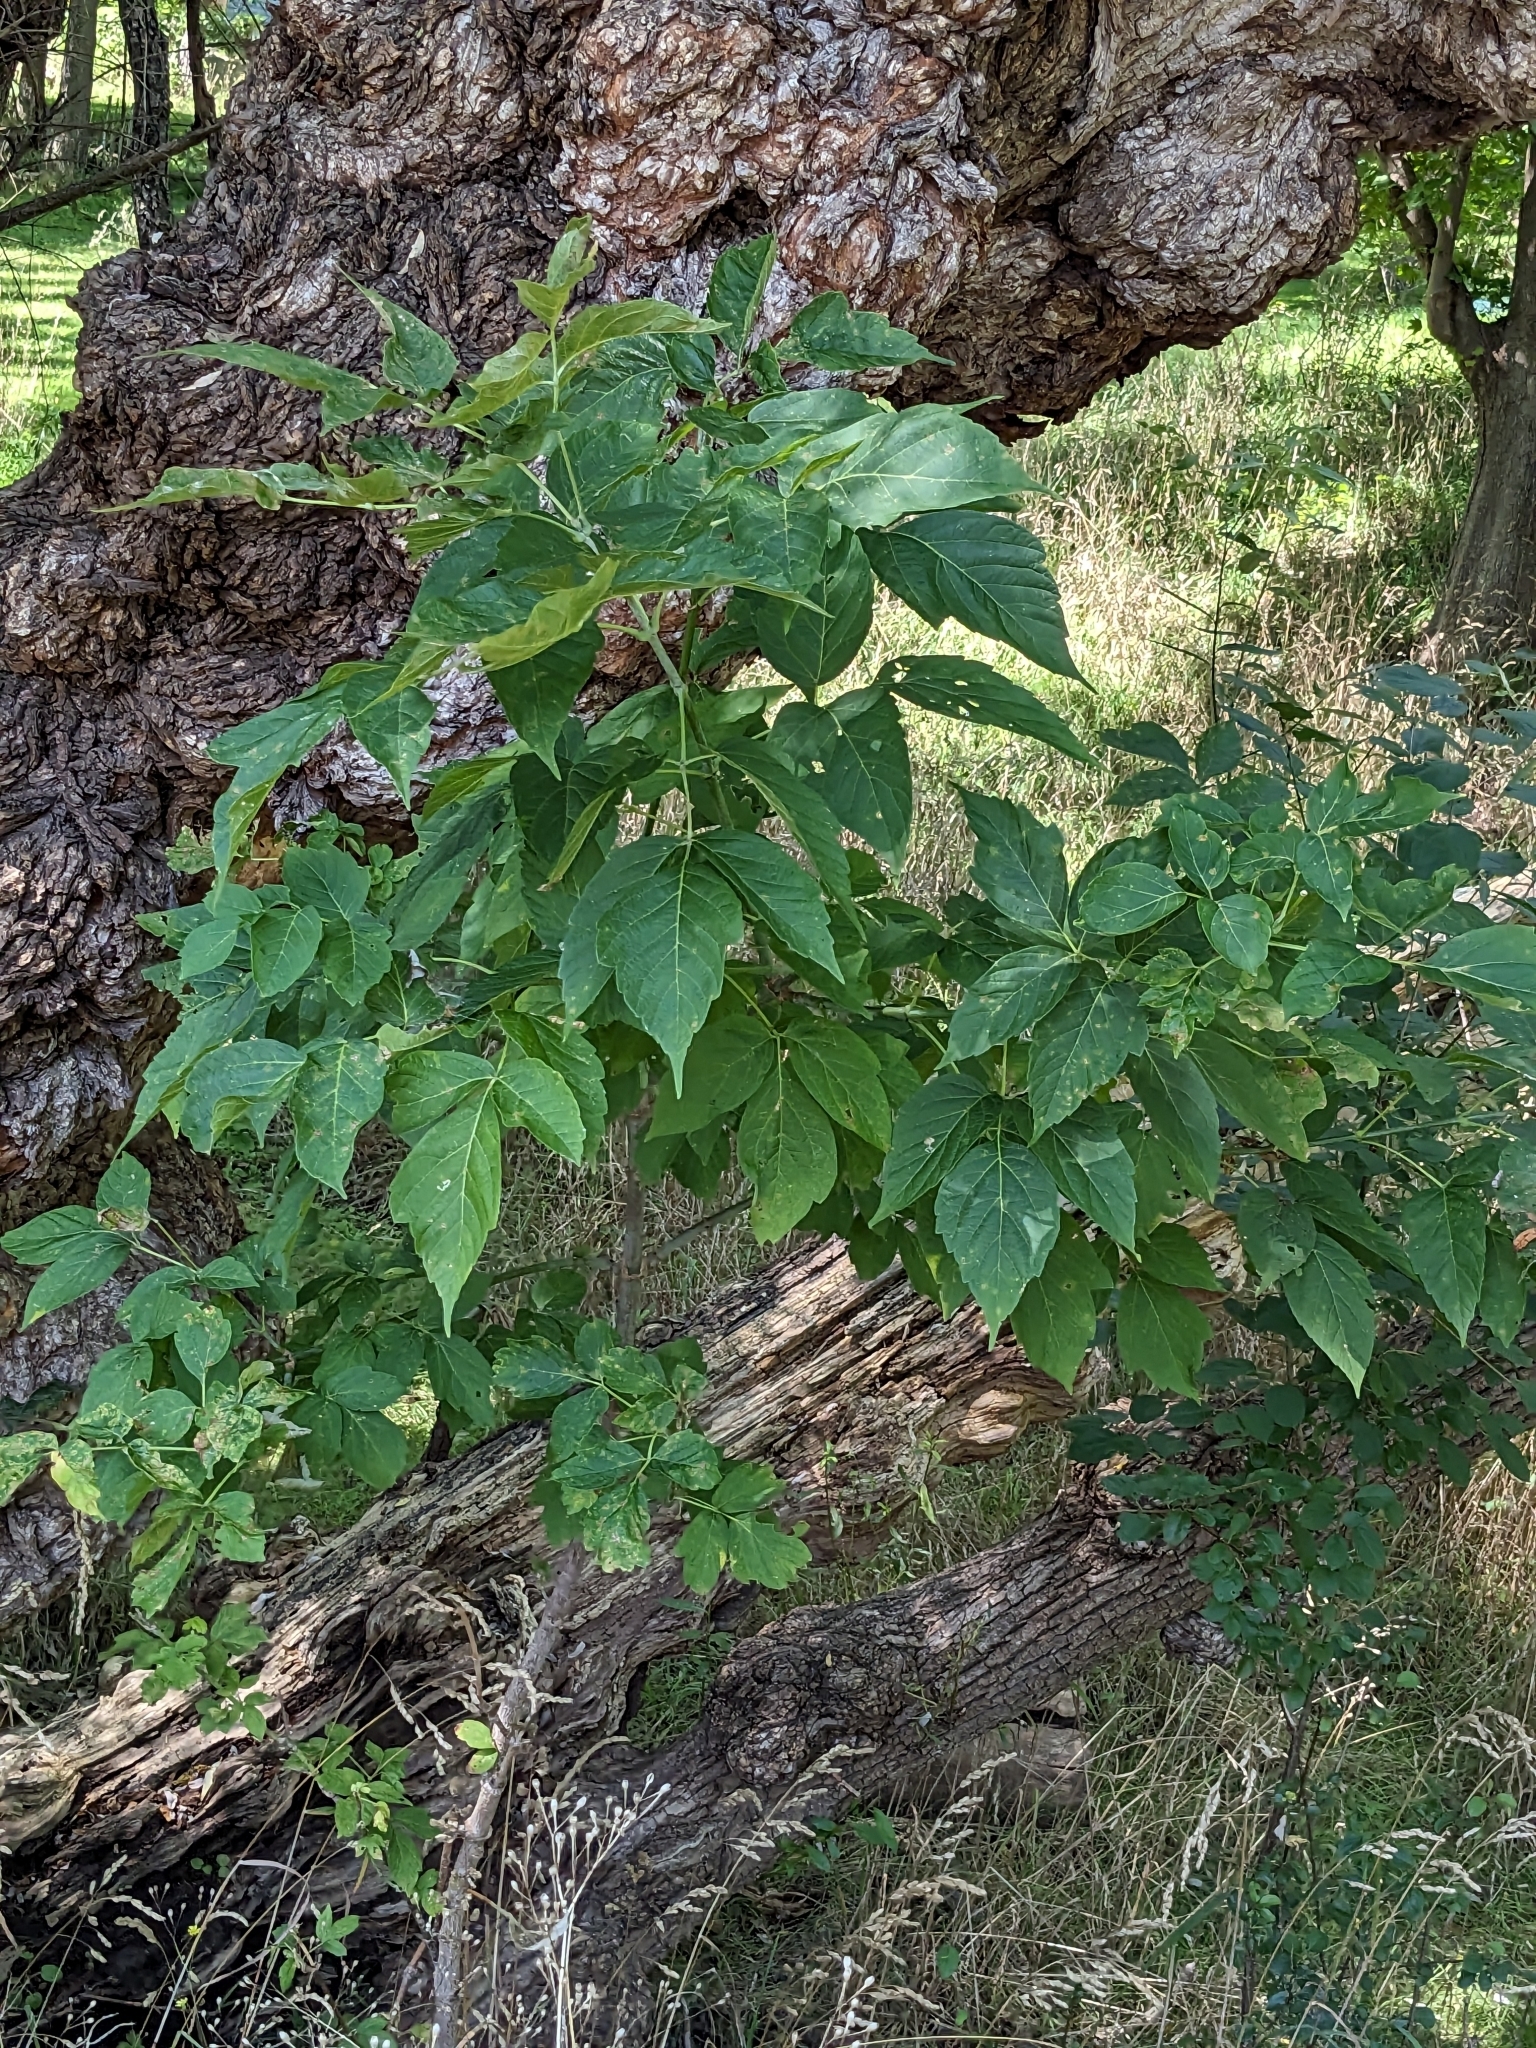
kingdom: Plantae
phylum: Tracheophyta
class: Magnoliopsida
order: Sapindales
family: Sapindaceae
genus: Acer
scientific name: Acer negundo
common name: Ashleaf maple
